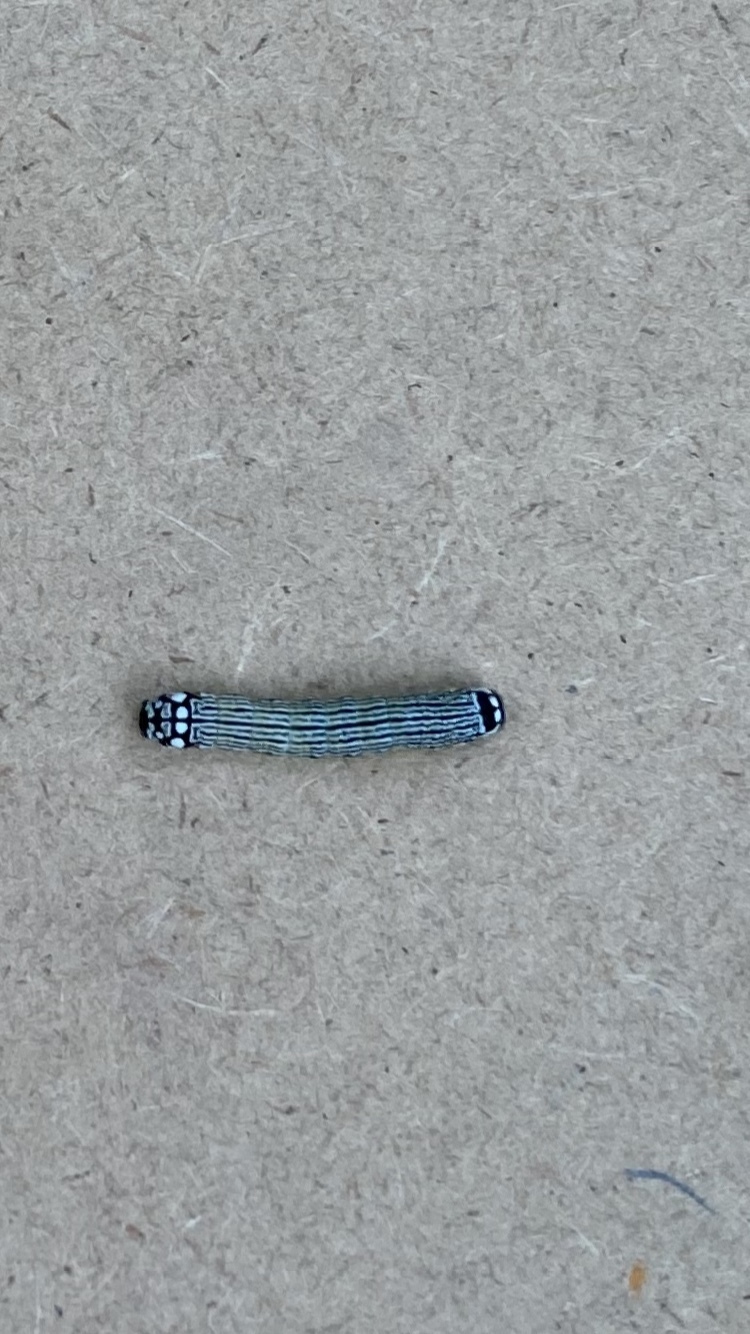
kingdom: Animalia
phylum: Arthropoda
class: Insecta
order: Lepidoptera
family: Noctuidae
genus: Phosphila
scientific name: Phosphila turbulenta
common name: Turbulent phosphila moth
